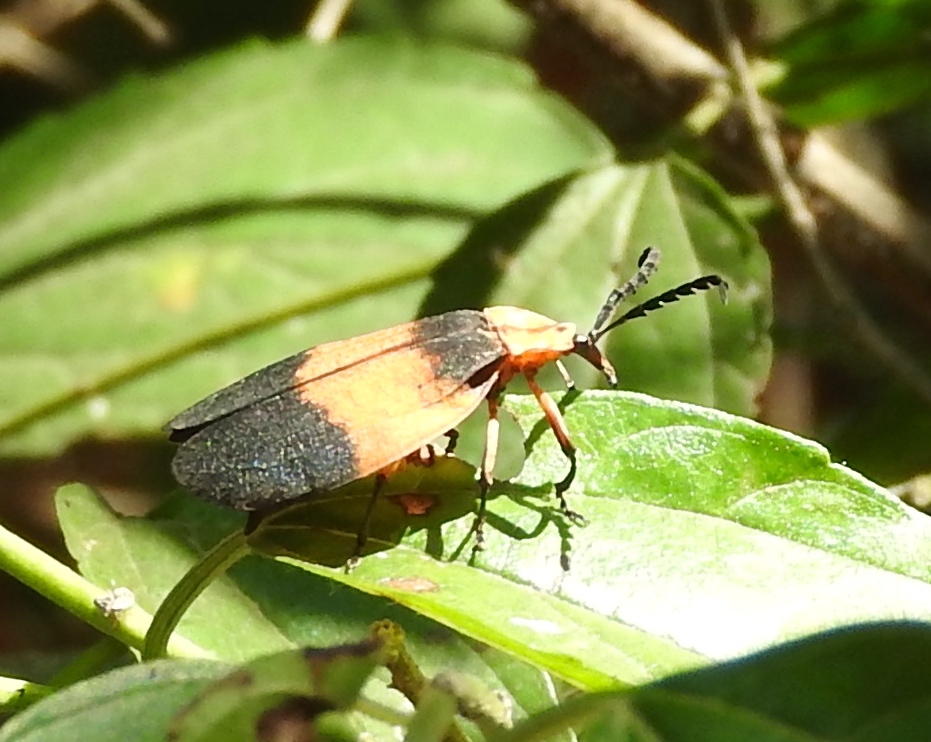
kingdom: Animalia
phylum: Arthropoda
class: Insecta
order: Coleoptera
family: Lycidae
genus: Lycus
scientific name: Lycus
